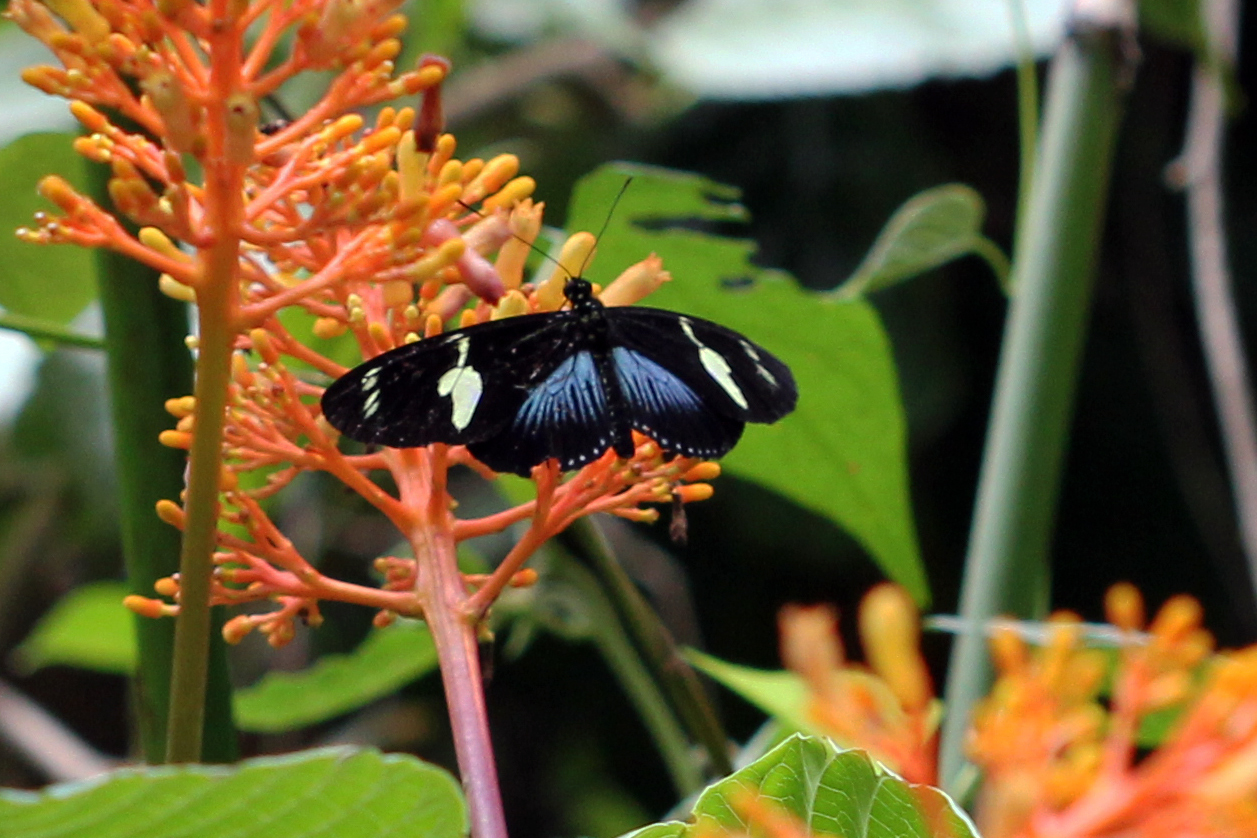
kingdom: Animalia
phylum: Arthropoda
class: Insecta
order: Lepidoptera
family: Nymphalidae
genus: Heliconius
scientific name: Heliconius doris
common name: Doris longwing
